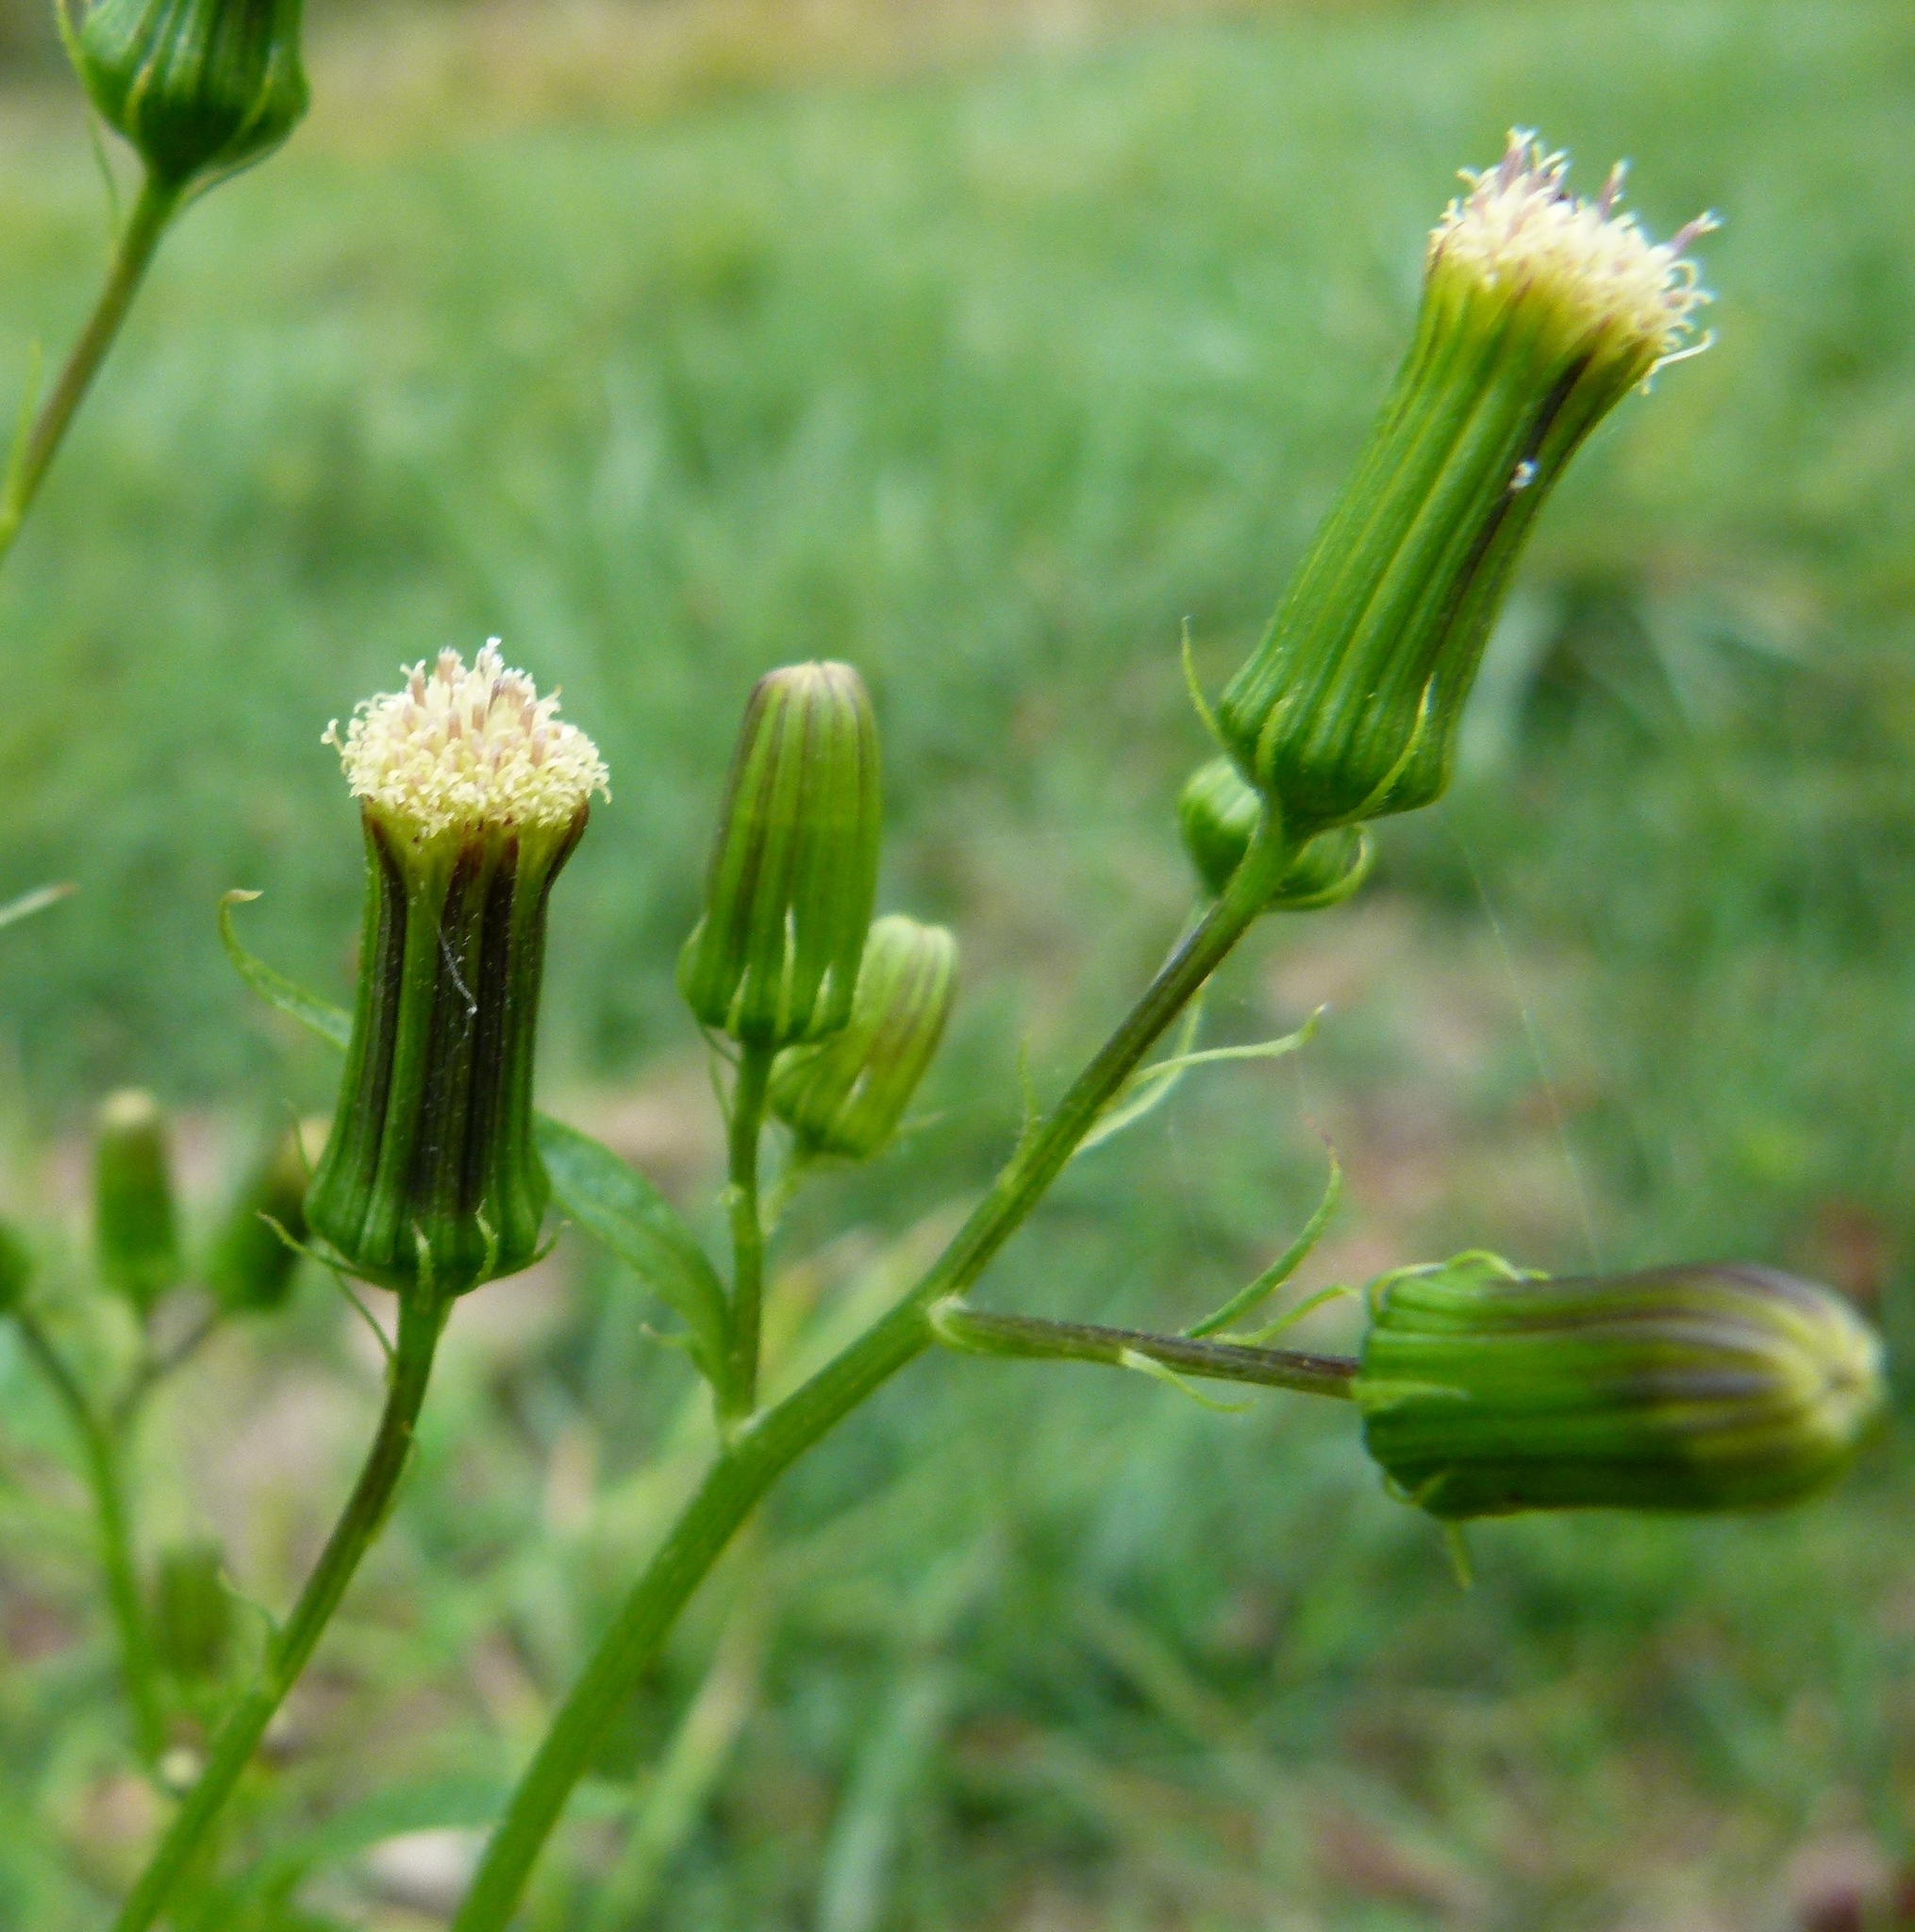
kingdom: Plantae
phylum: Tracheophyta
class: Magnoliopsida
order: Asterales
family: Asteraceae
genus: Erechtites
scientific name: Erechtites hieraciifolius
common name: American burnweed
